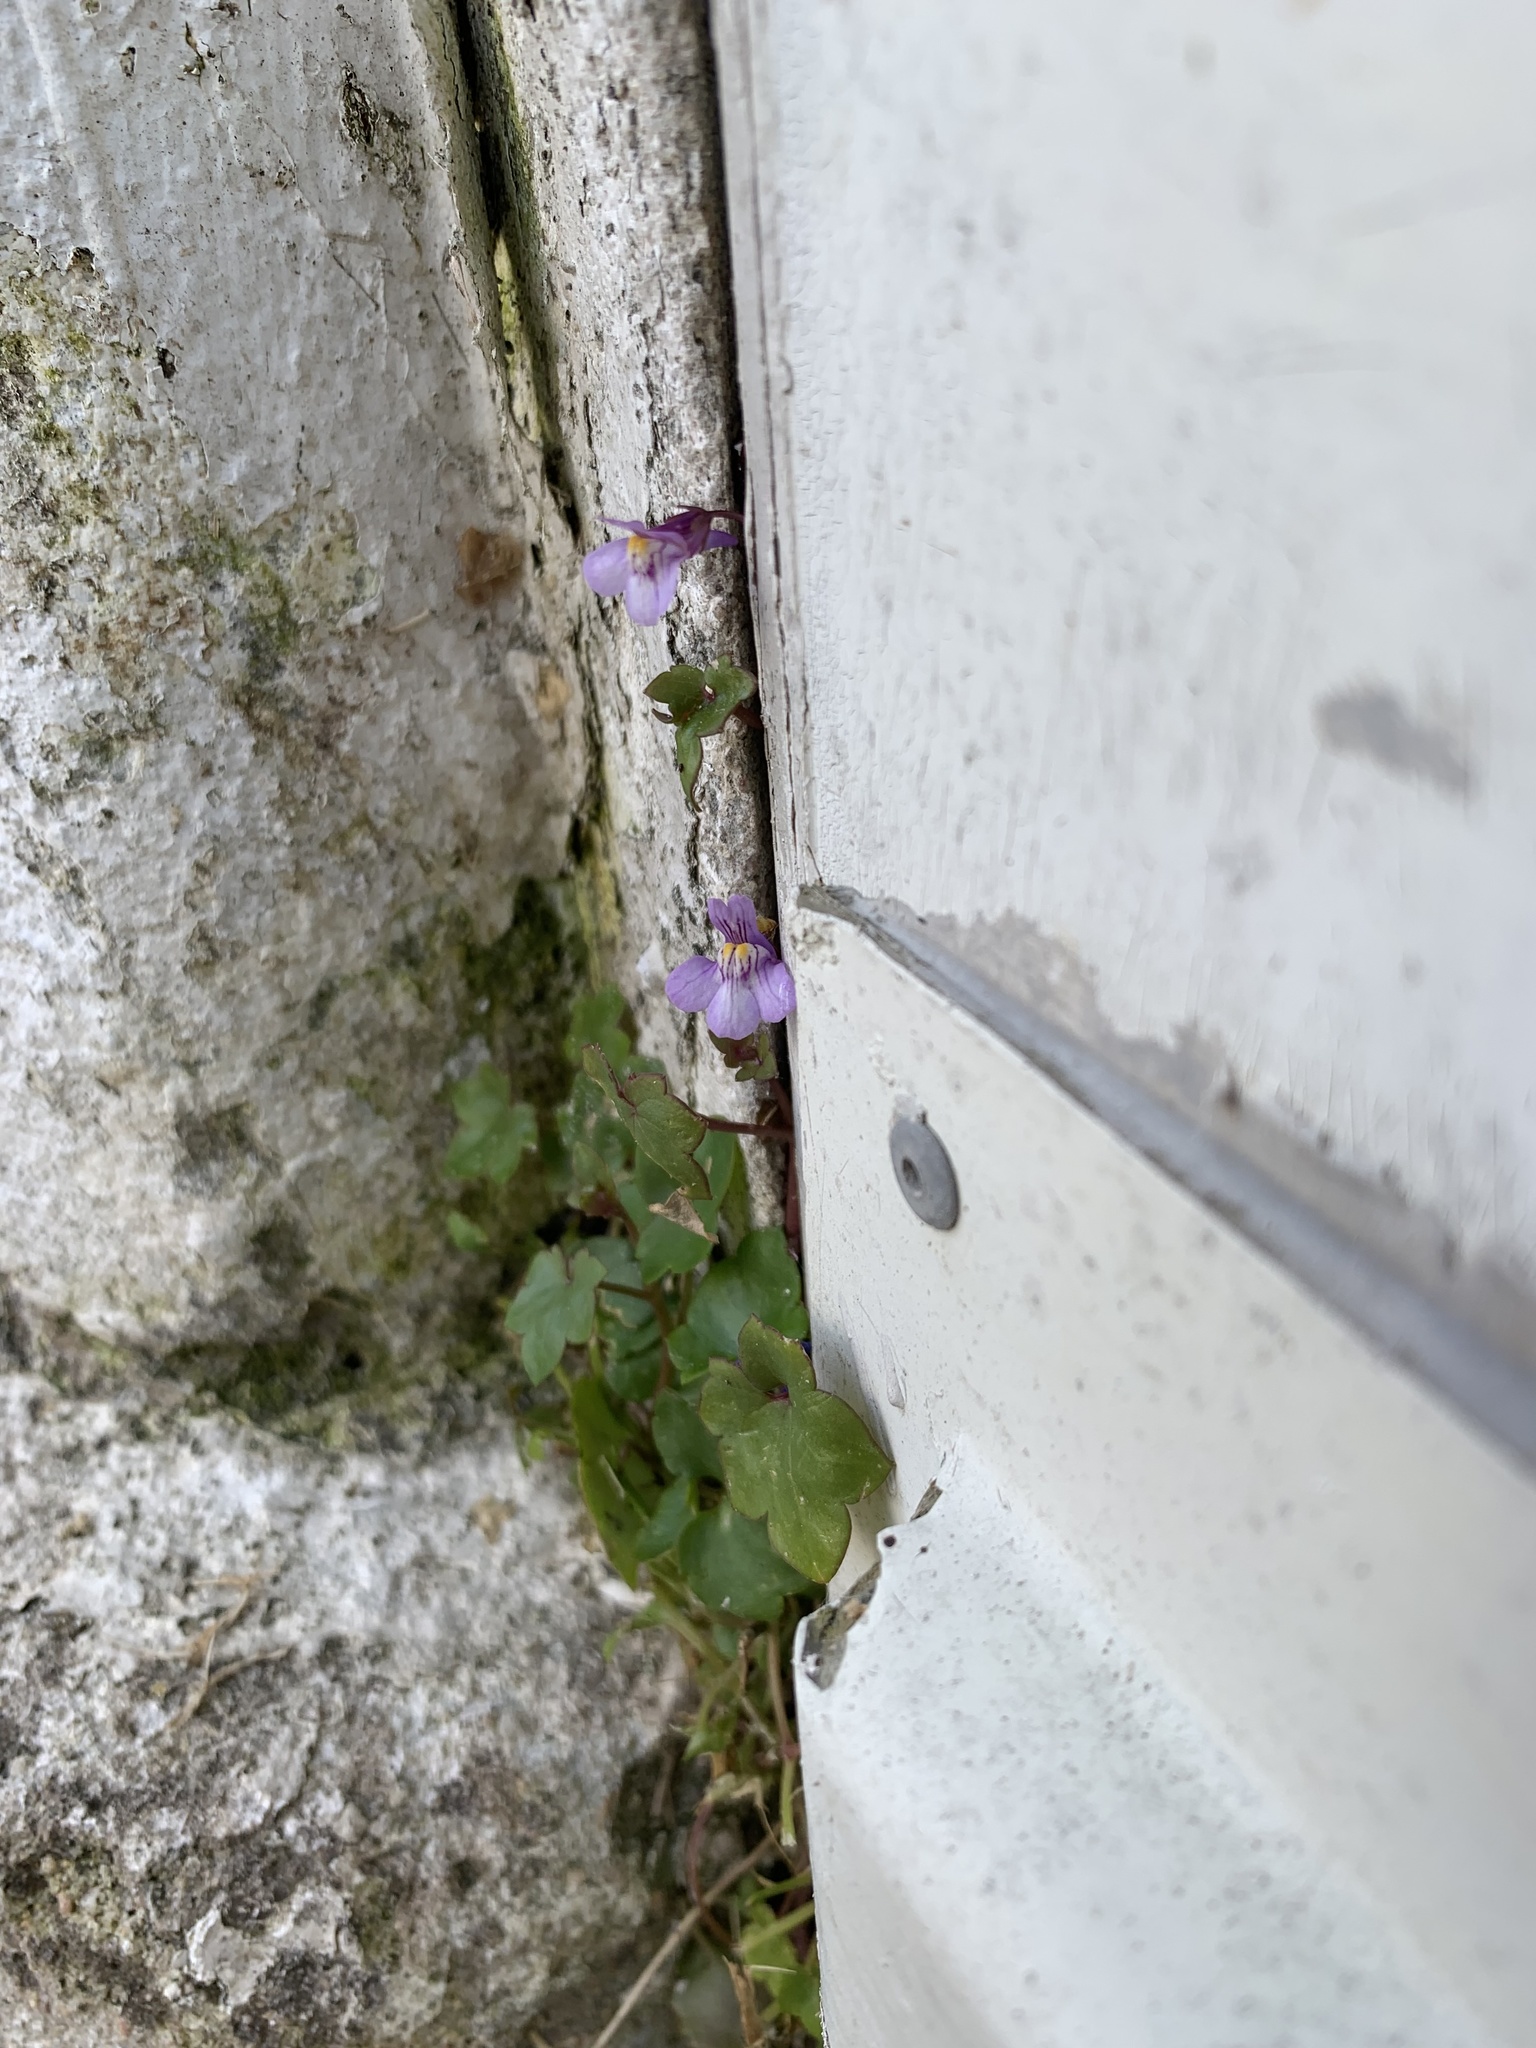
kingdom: Plantae
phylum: Tracheophyta
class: Magnoliopsida
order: Lamiales
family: Plantaginaceae
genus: Cymbalaria
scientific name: Cymbalaria muralis
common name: Ivy-leaved toadflax
